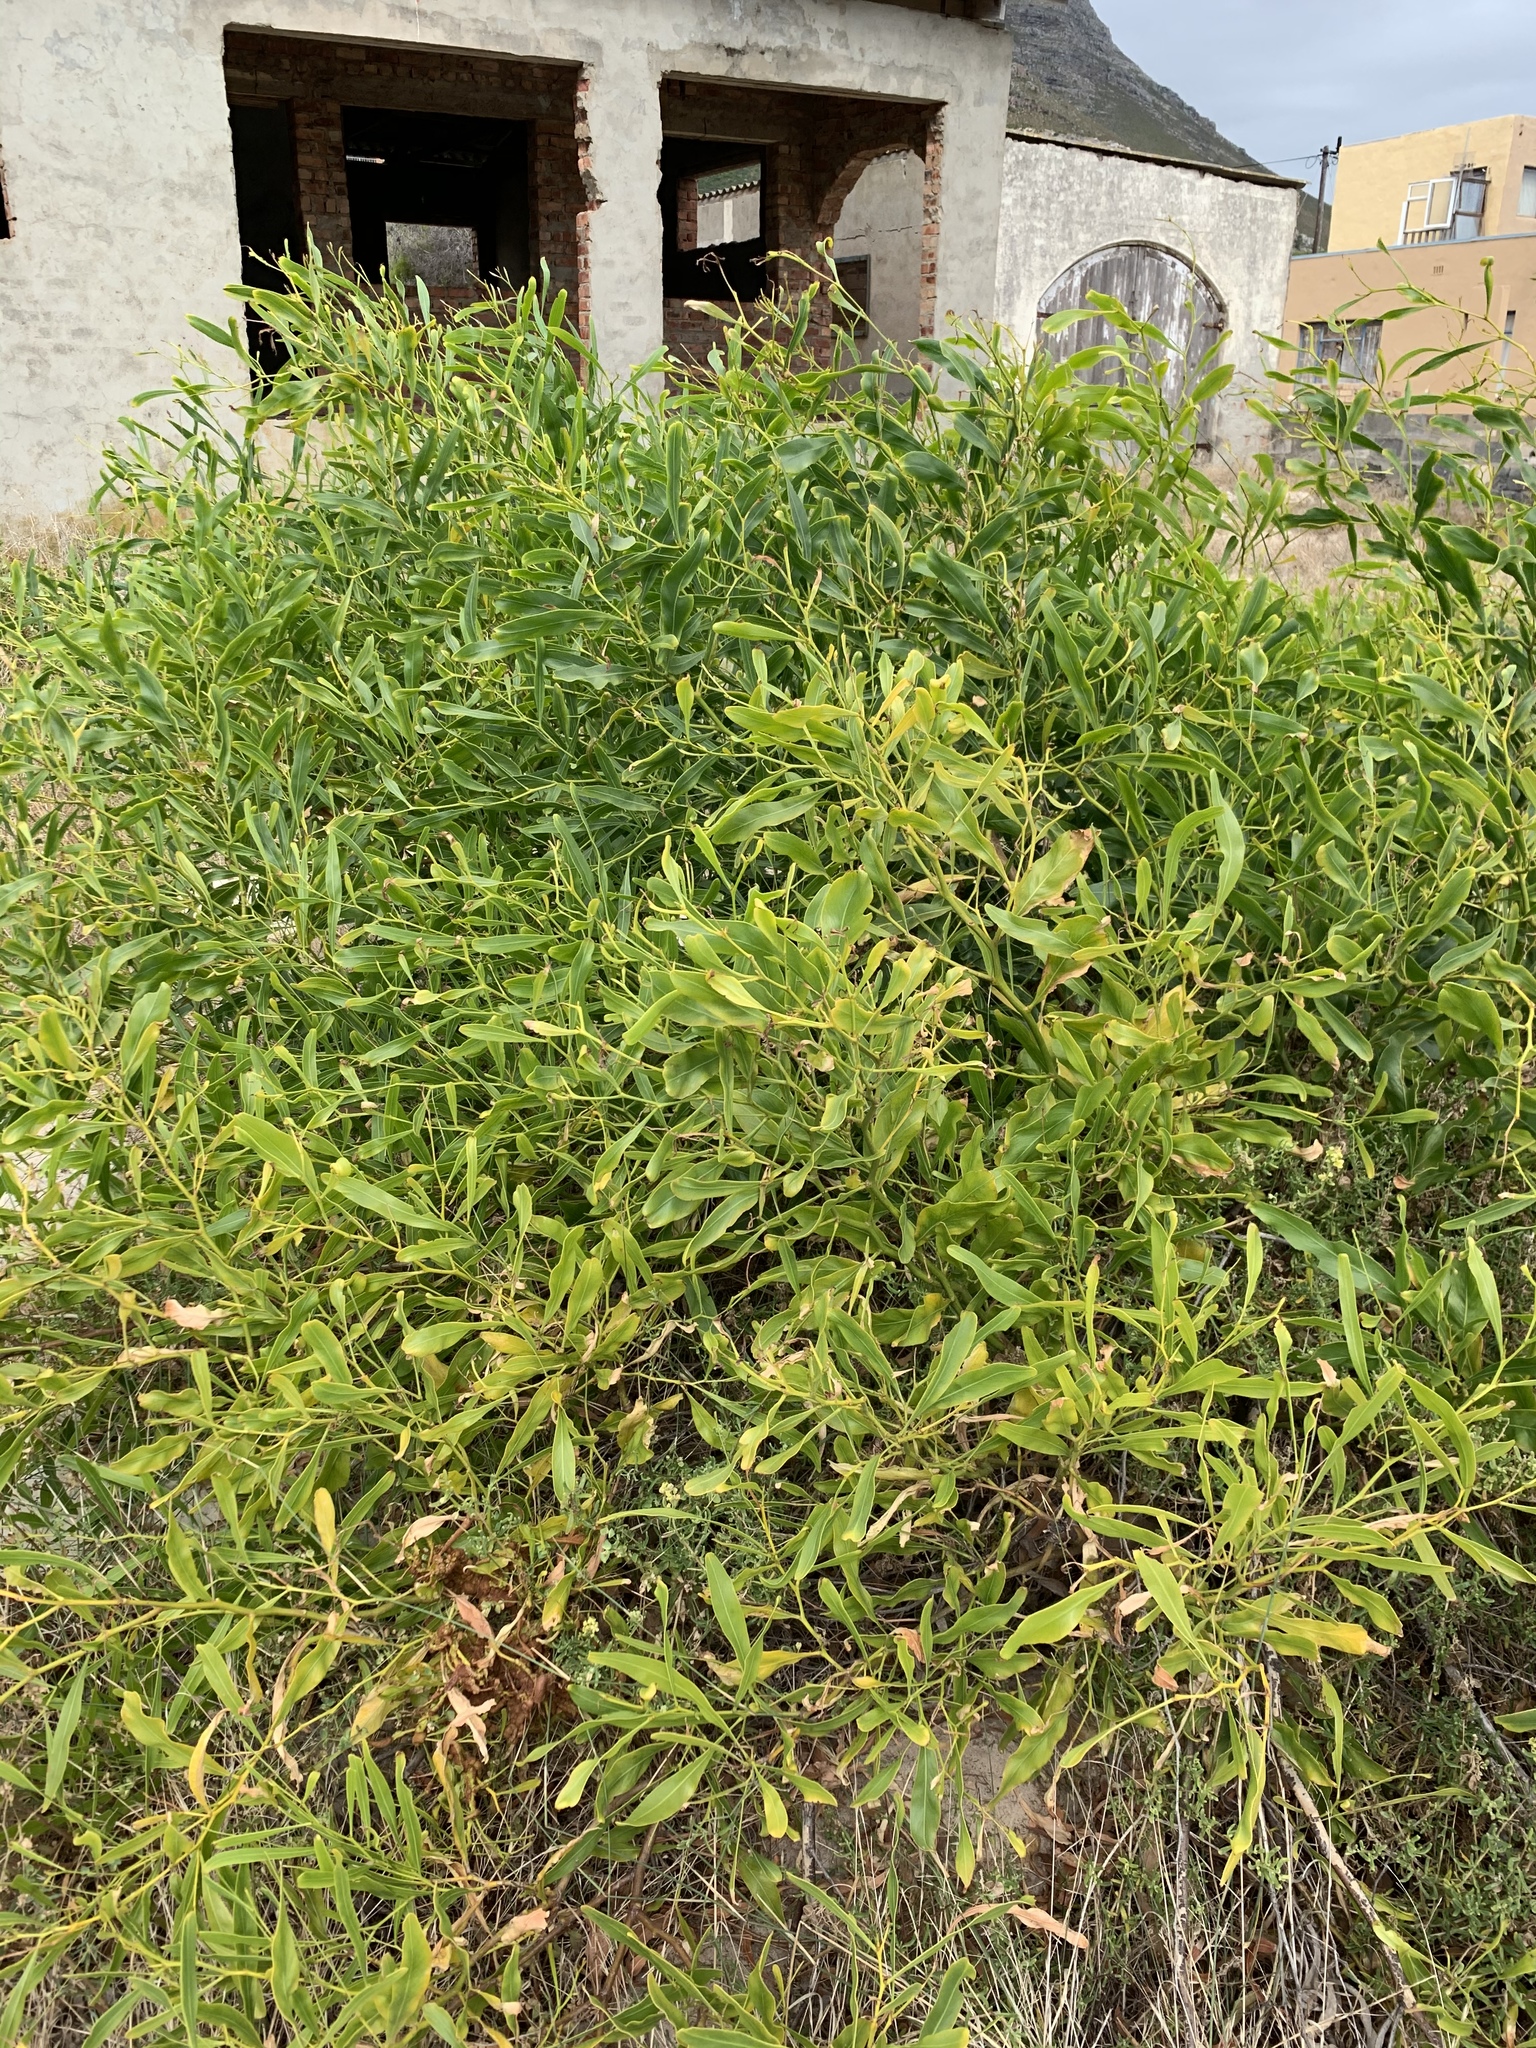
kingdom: Plantae
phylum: Tracheophyta
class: Magnoliopsida
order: Fabales
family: Fabaceae
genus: Acacia
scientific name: Acacia saligna
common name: Orange wattle
